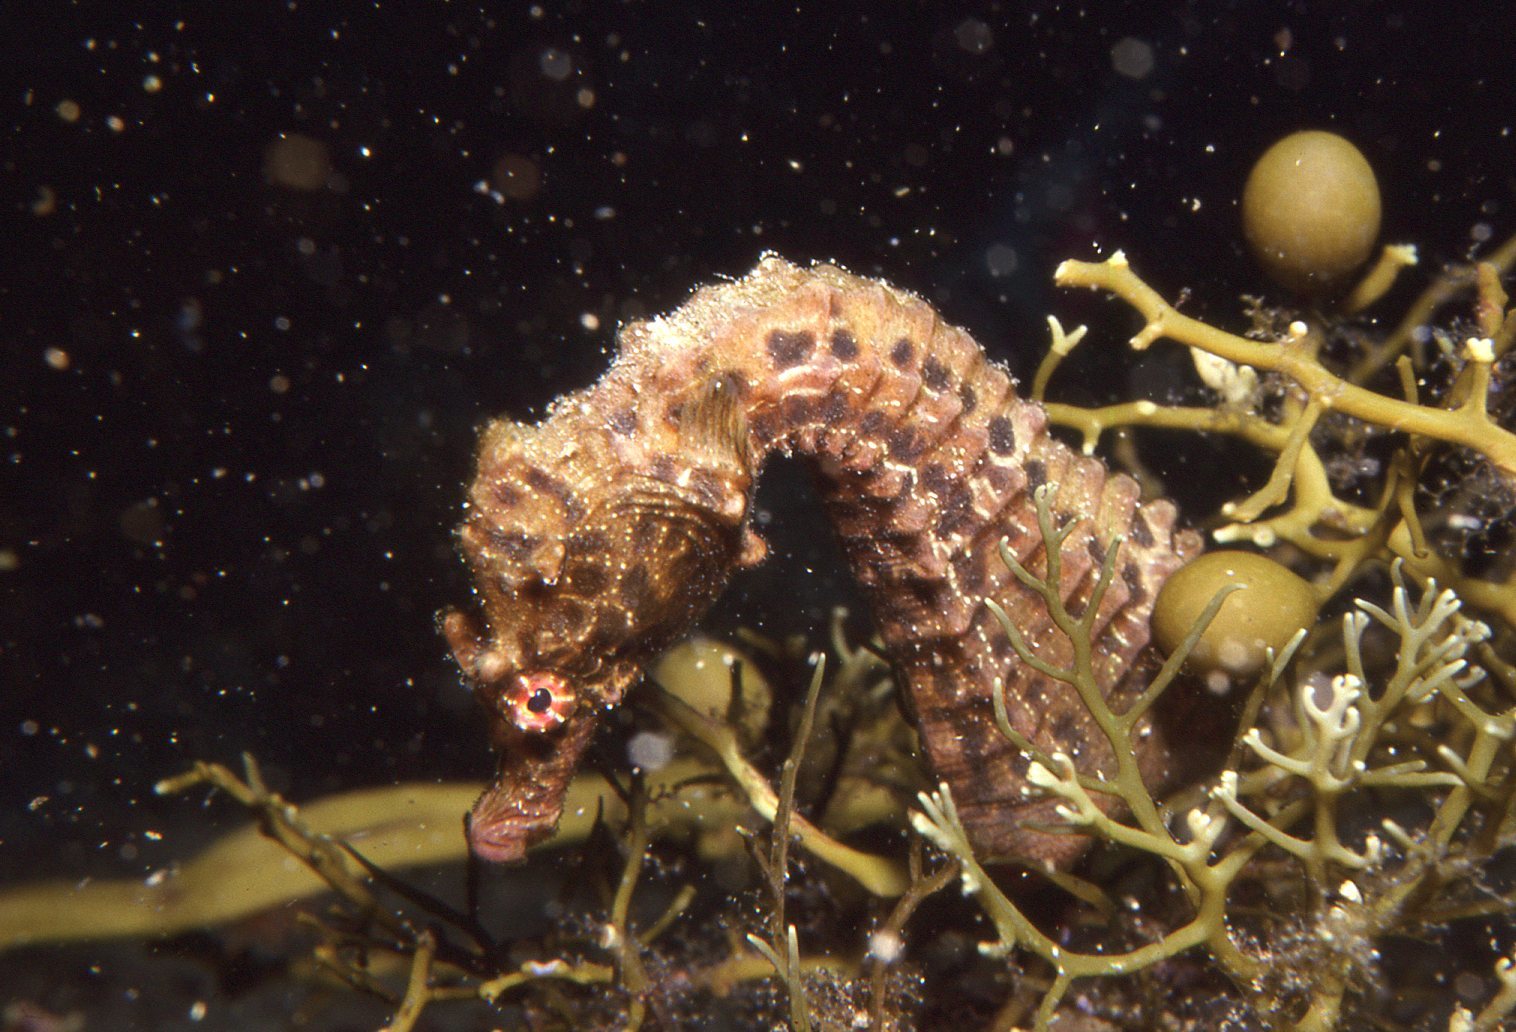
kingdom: Animalia
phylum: Chordata
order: Syngnathiformes
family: Syngnathidae
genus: Hippocampus
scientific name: Hippocampus abdominalis
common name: Big-belly seahorse
